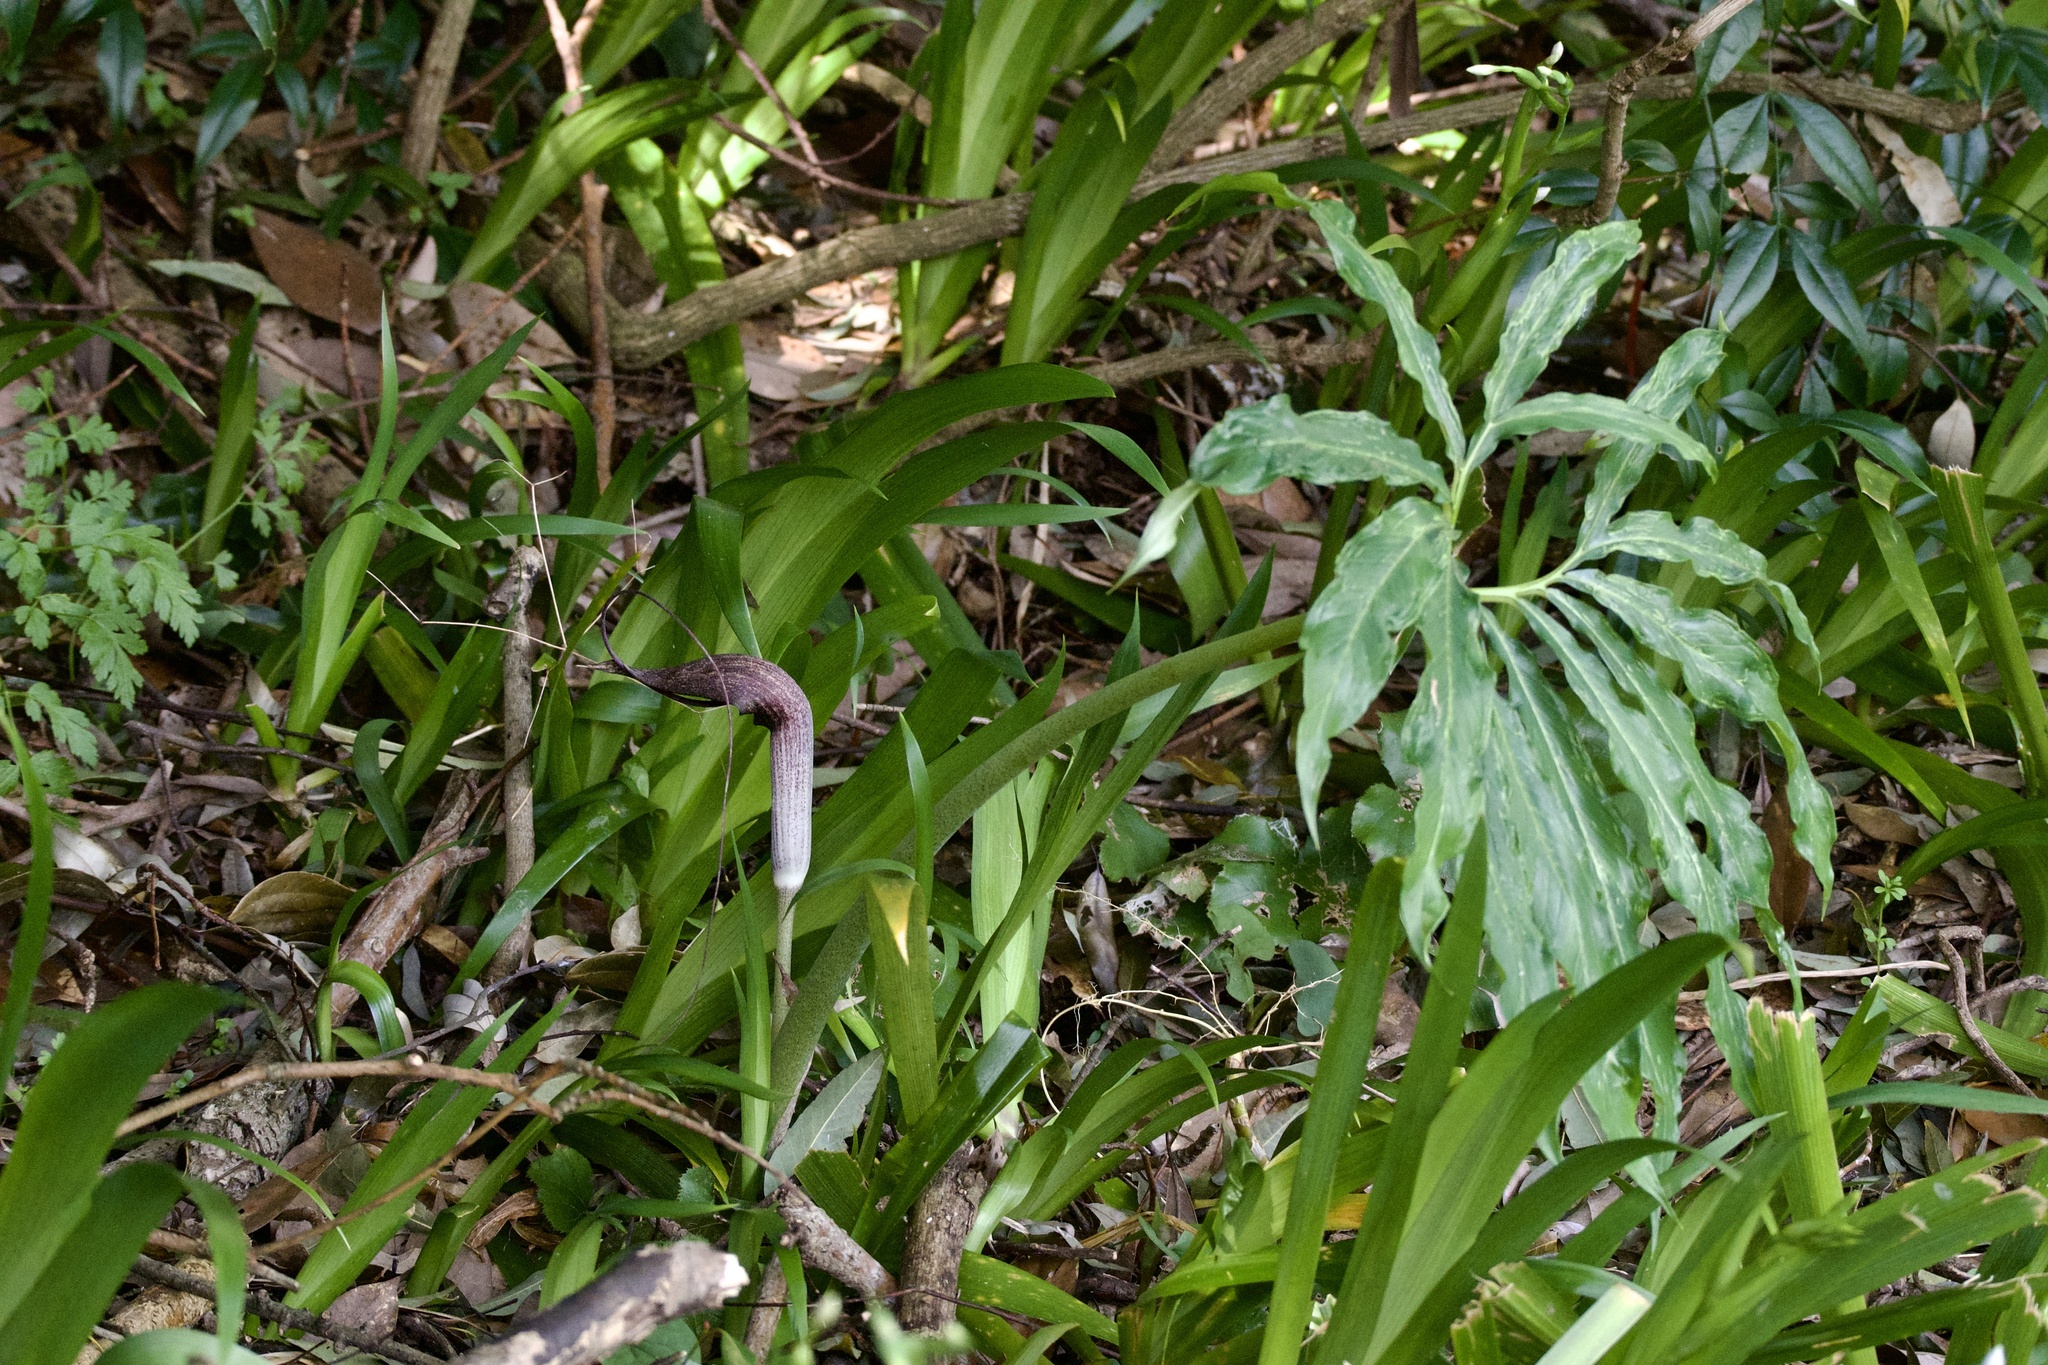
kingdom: Plantae
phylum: Tracheophyta
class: Liliopsida
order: Alismatales
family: Araceae
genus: Arisaema
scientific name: Arisaema thunbergii
